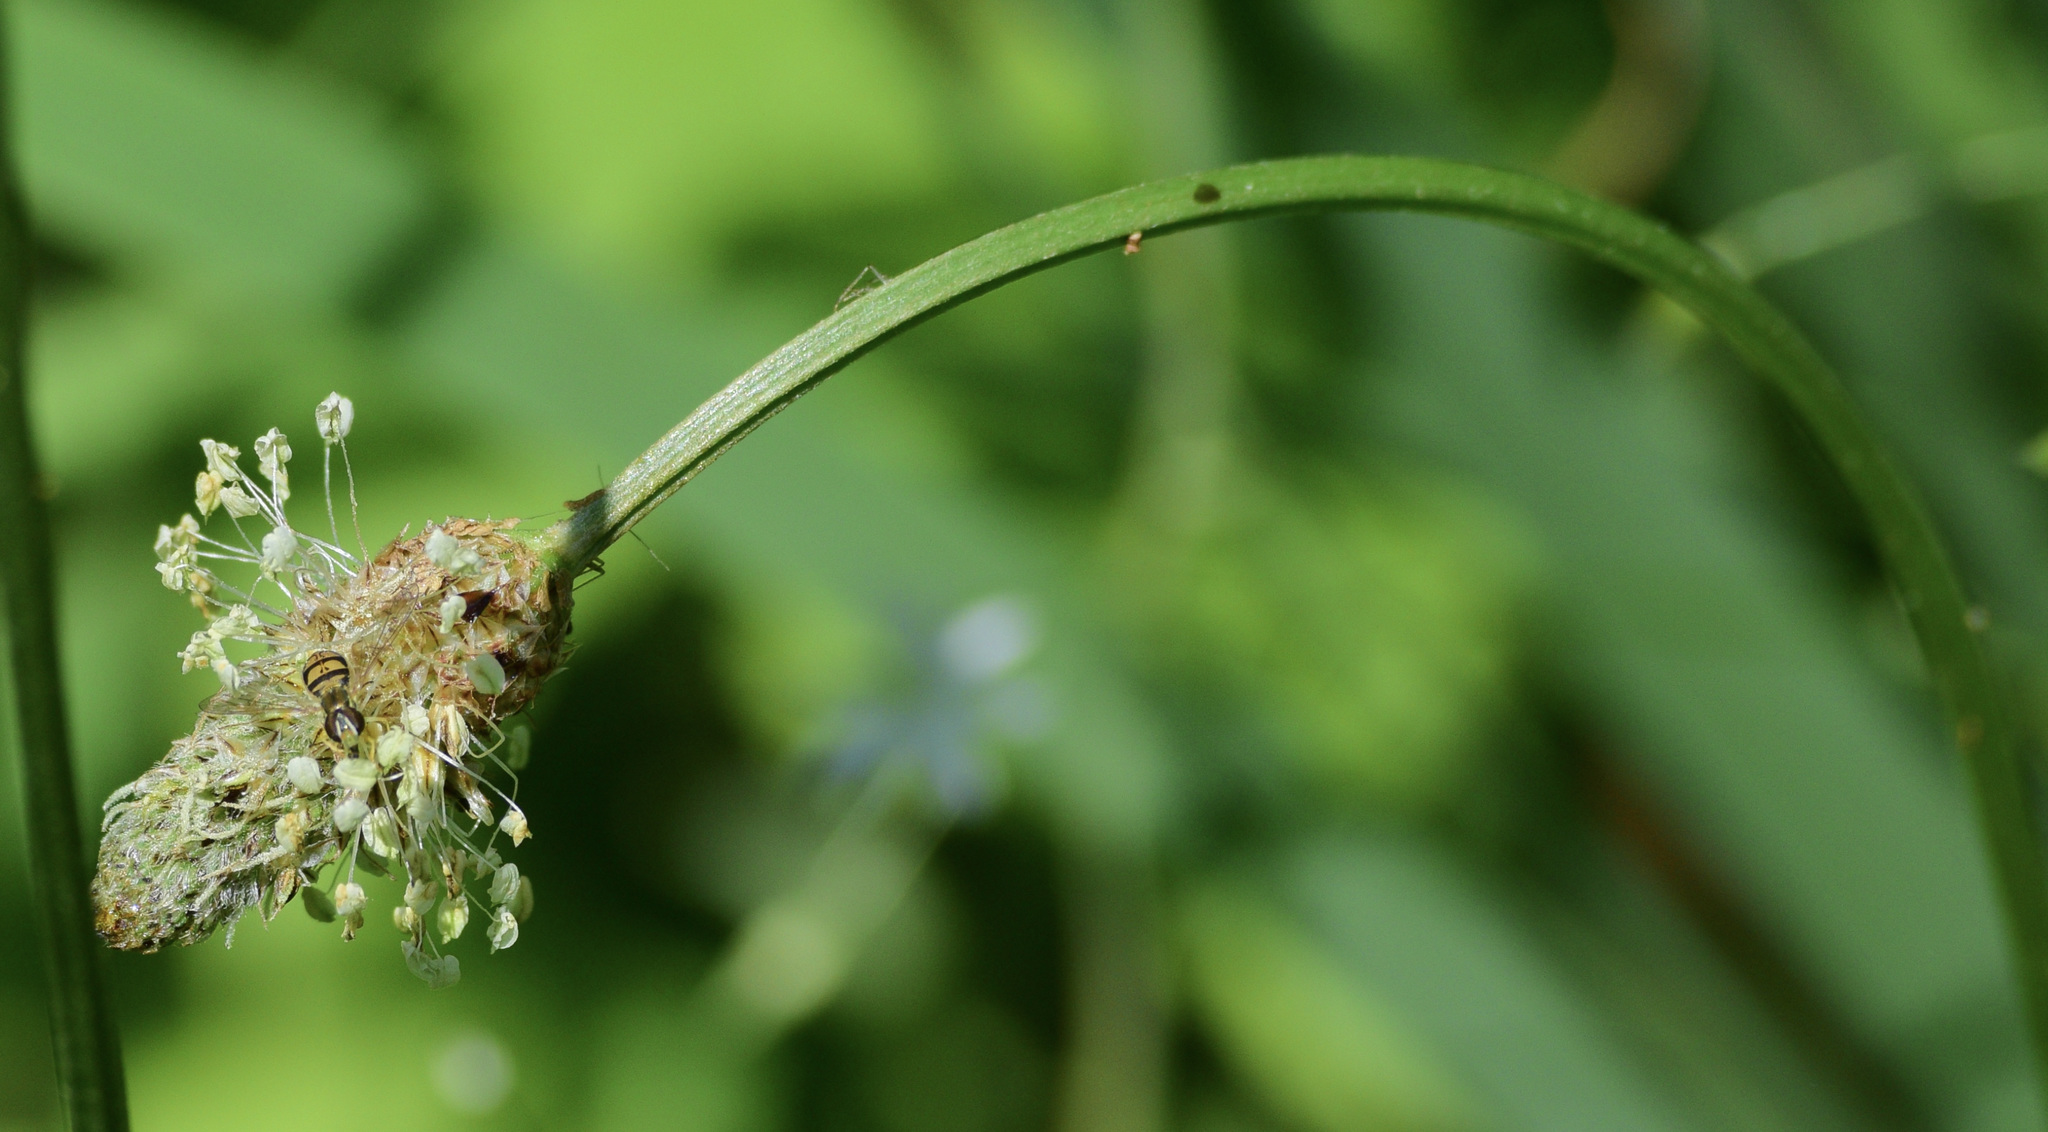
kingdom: Animalia
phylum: Arthropoda
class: Insecta
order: Diptera
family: Syrphidae
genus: Toxomerus
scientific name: Toxomerus marginatus
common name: Syrphid fly
